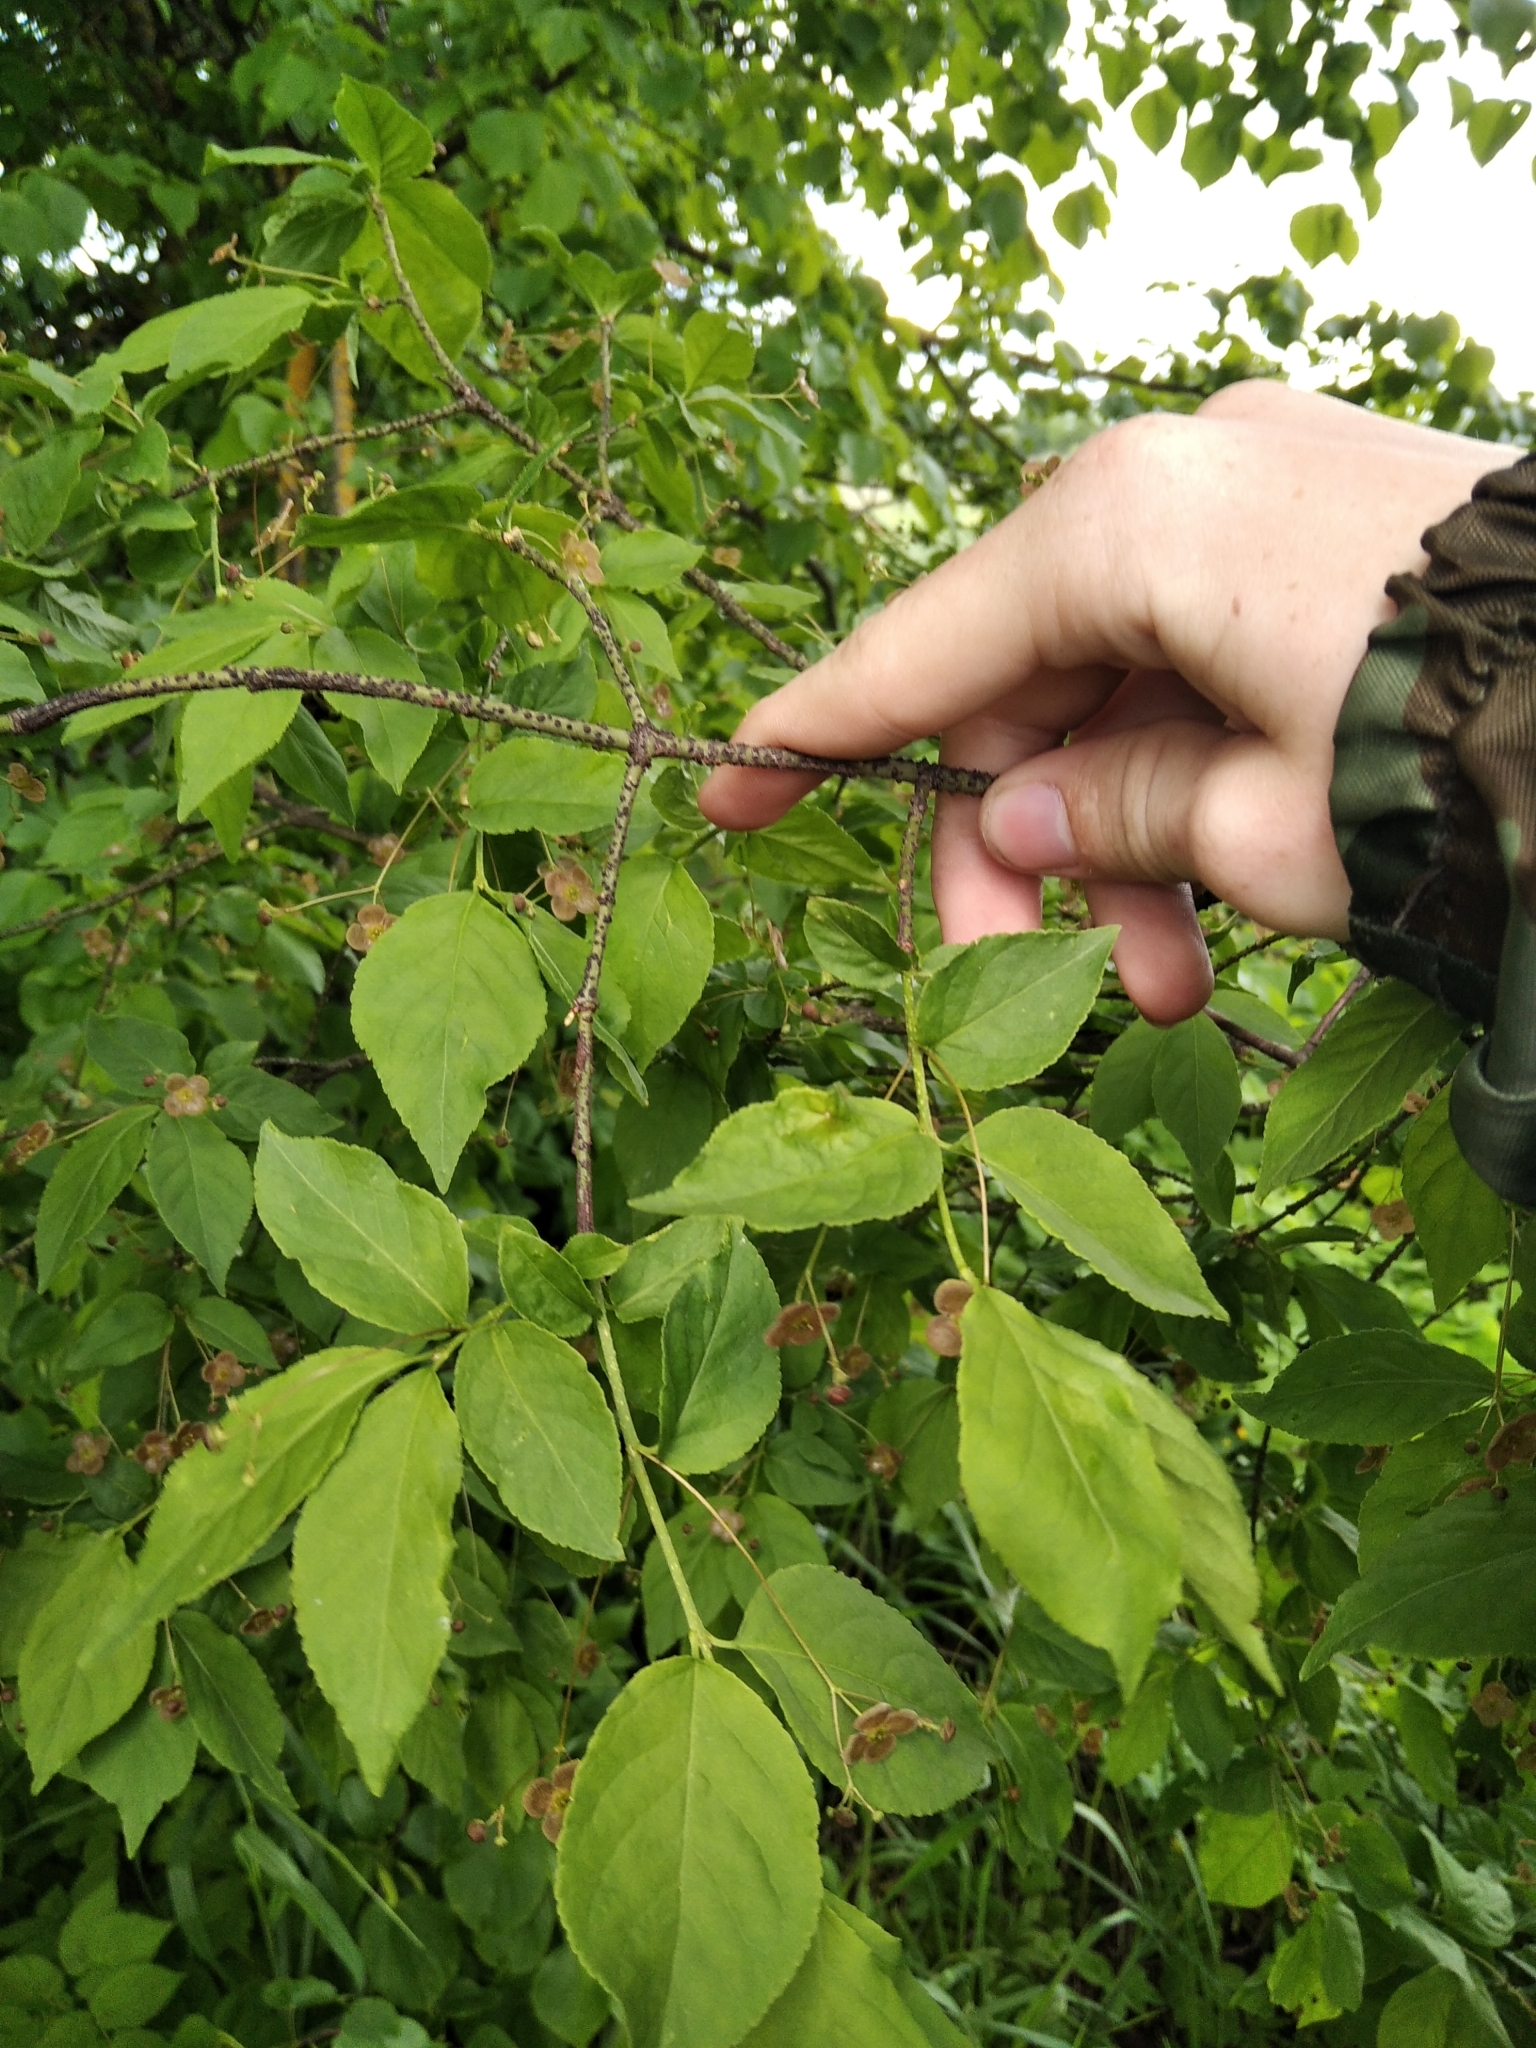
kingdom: Plantae
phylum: Tracheophyta
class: Magnoliopsida
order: Celastrales
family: Celastraceae
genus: Euonymus
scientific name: Euonymus verrucosus
